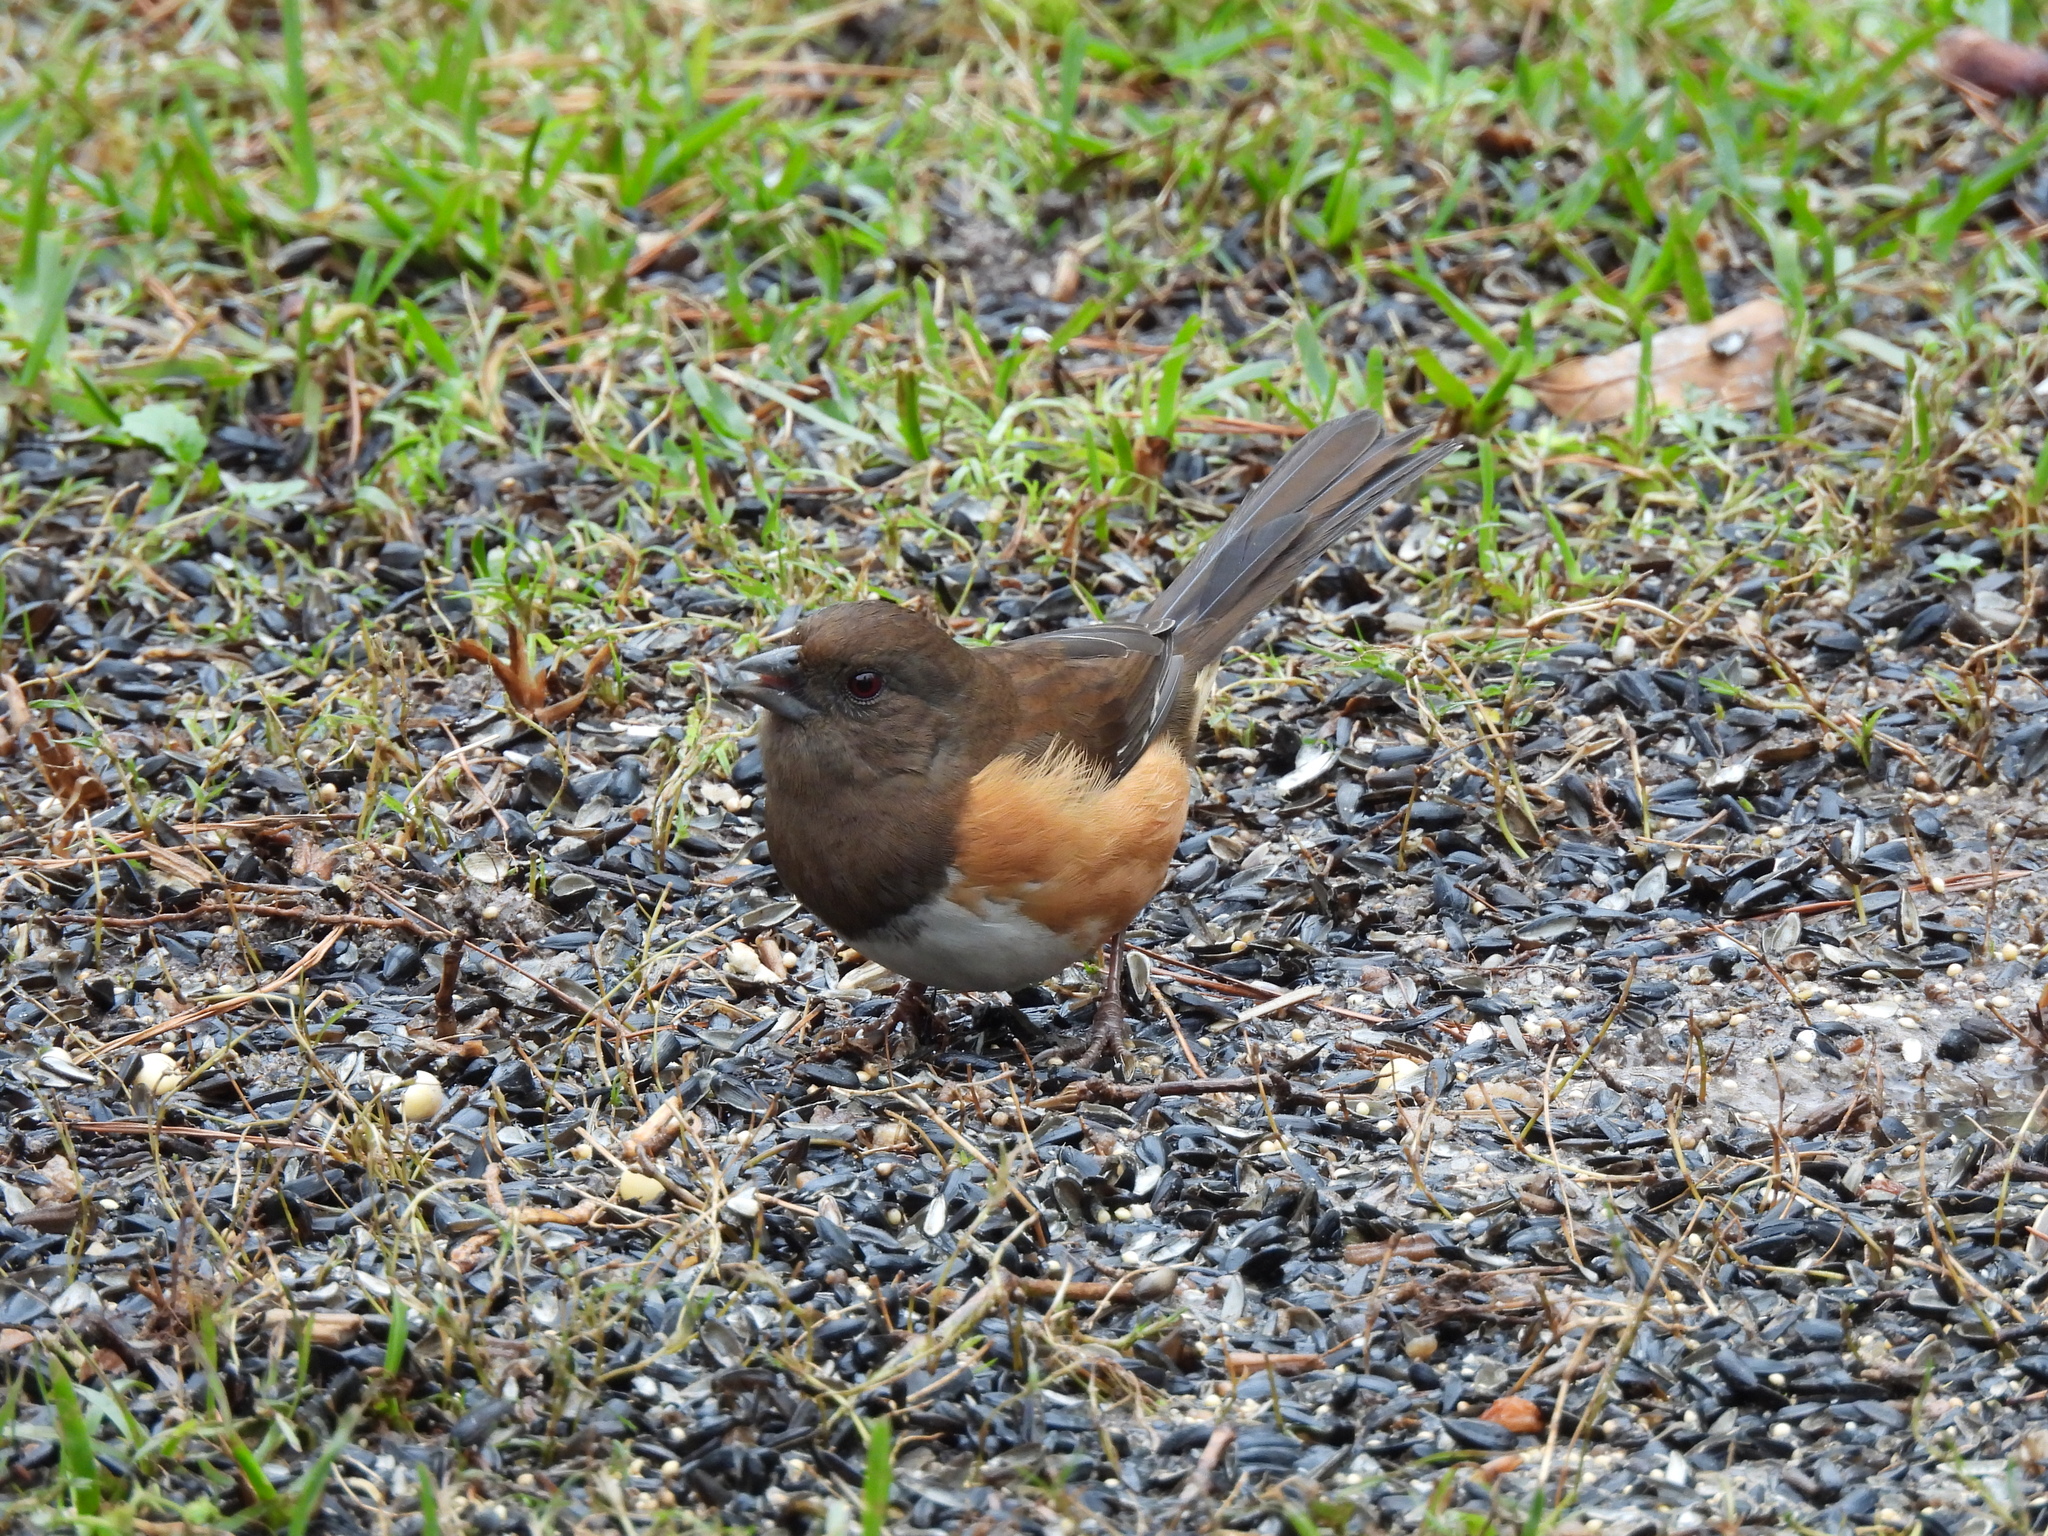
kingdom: Animalia
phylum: Chordata
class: Aves
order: Passeriformes
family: Passerellidae
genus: Pipilo
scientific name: Pipilo erythrophthalmus
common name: Eastern towhee
